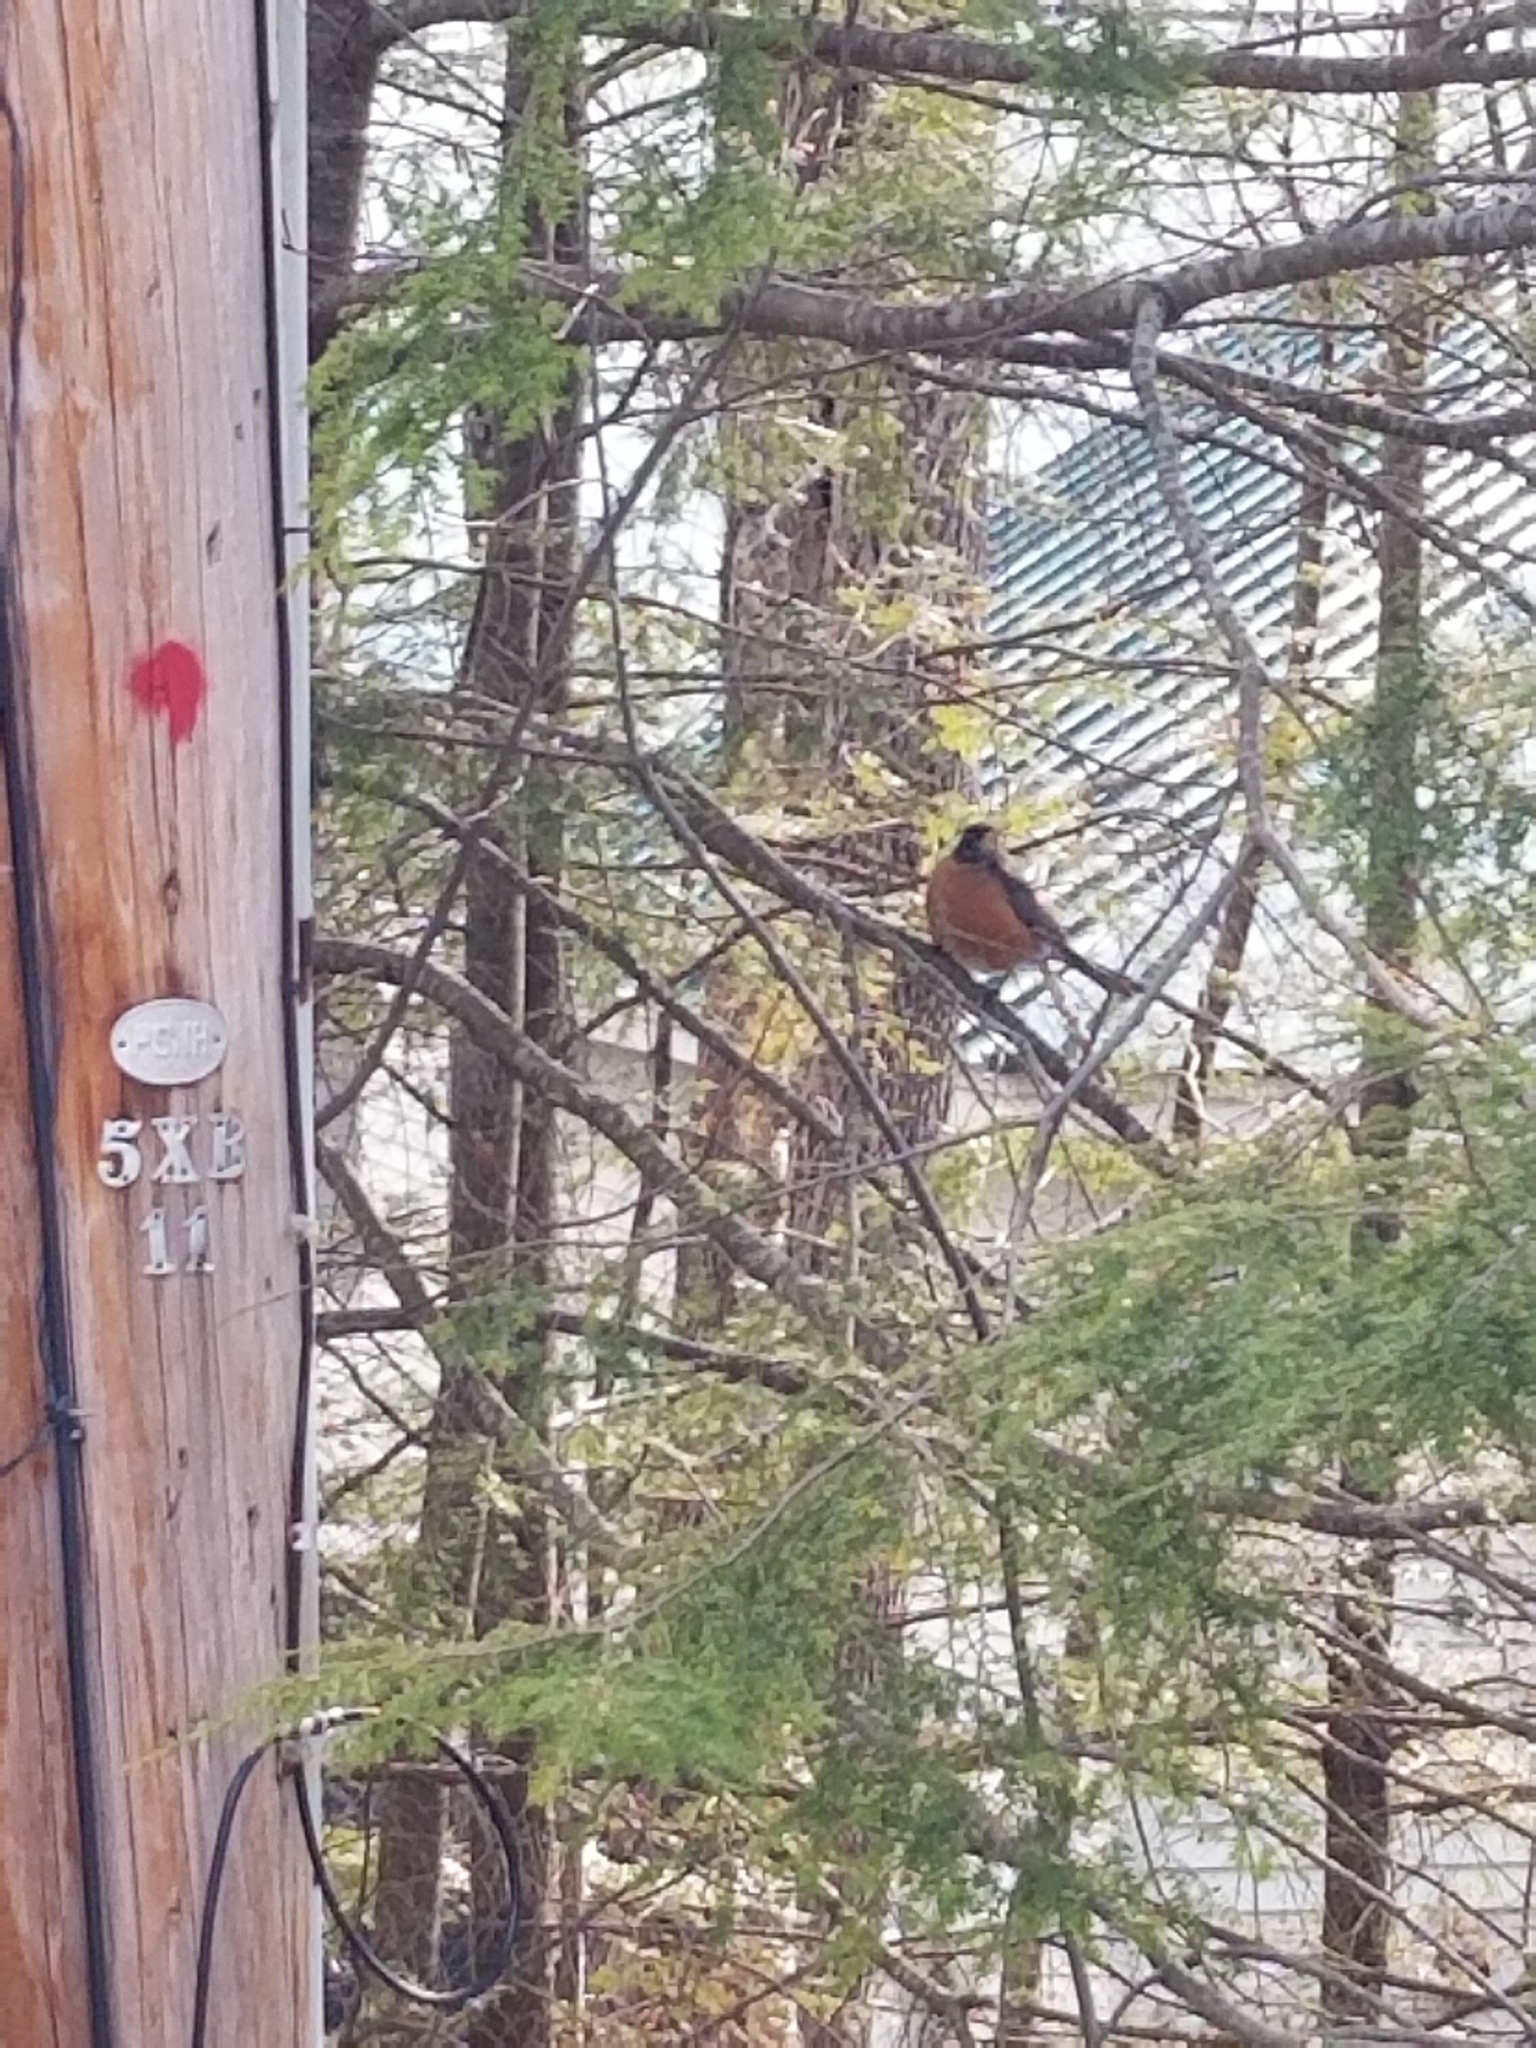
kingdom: Animalia
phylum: Chordata
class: Aves
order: Passeriformes
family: Turdidae
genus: Turdus
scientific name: Turdus migratorius
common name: American robin
